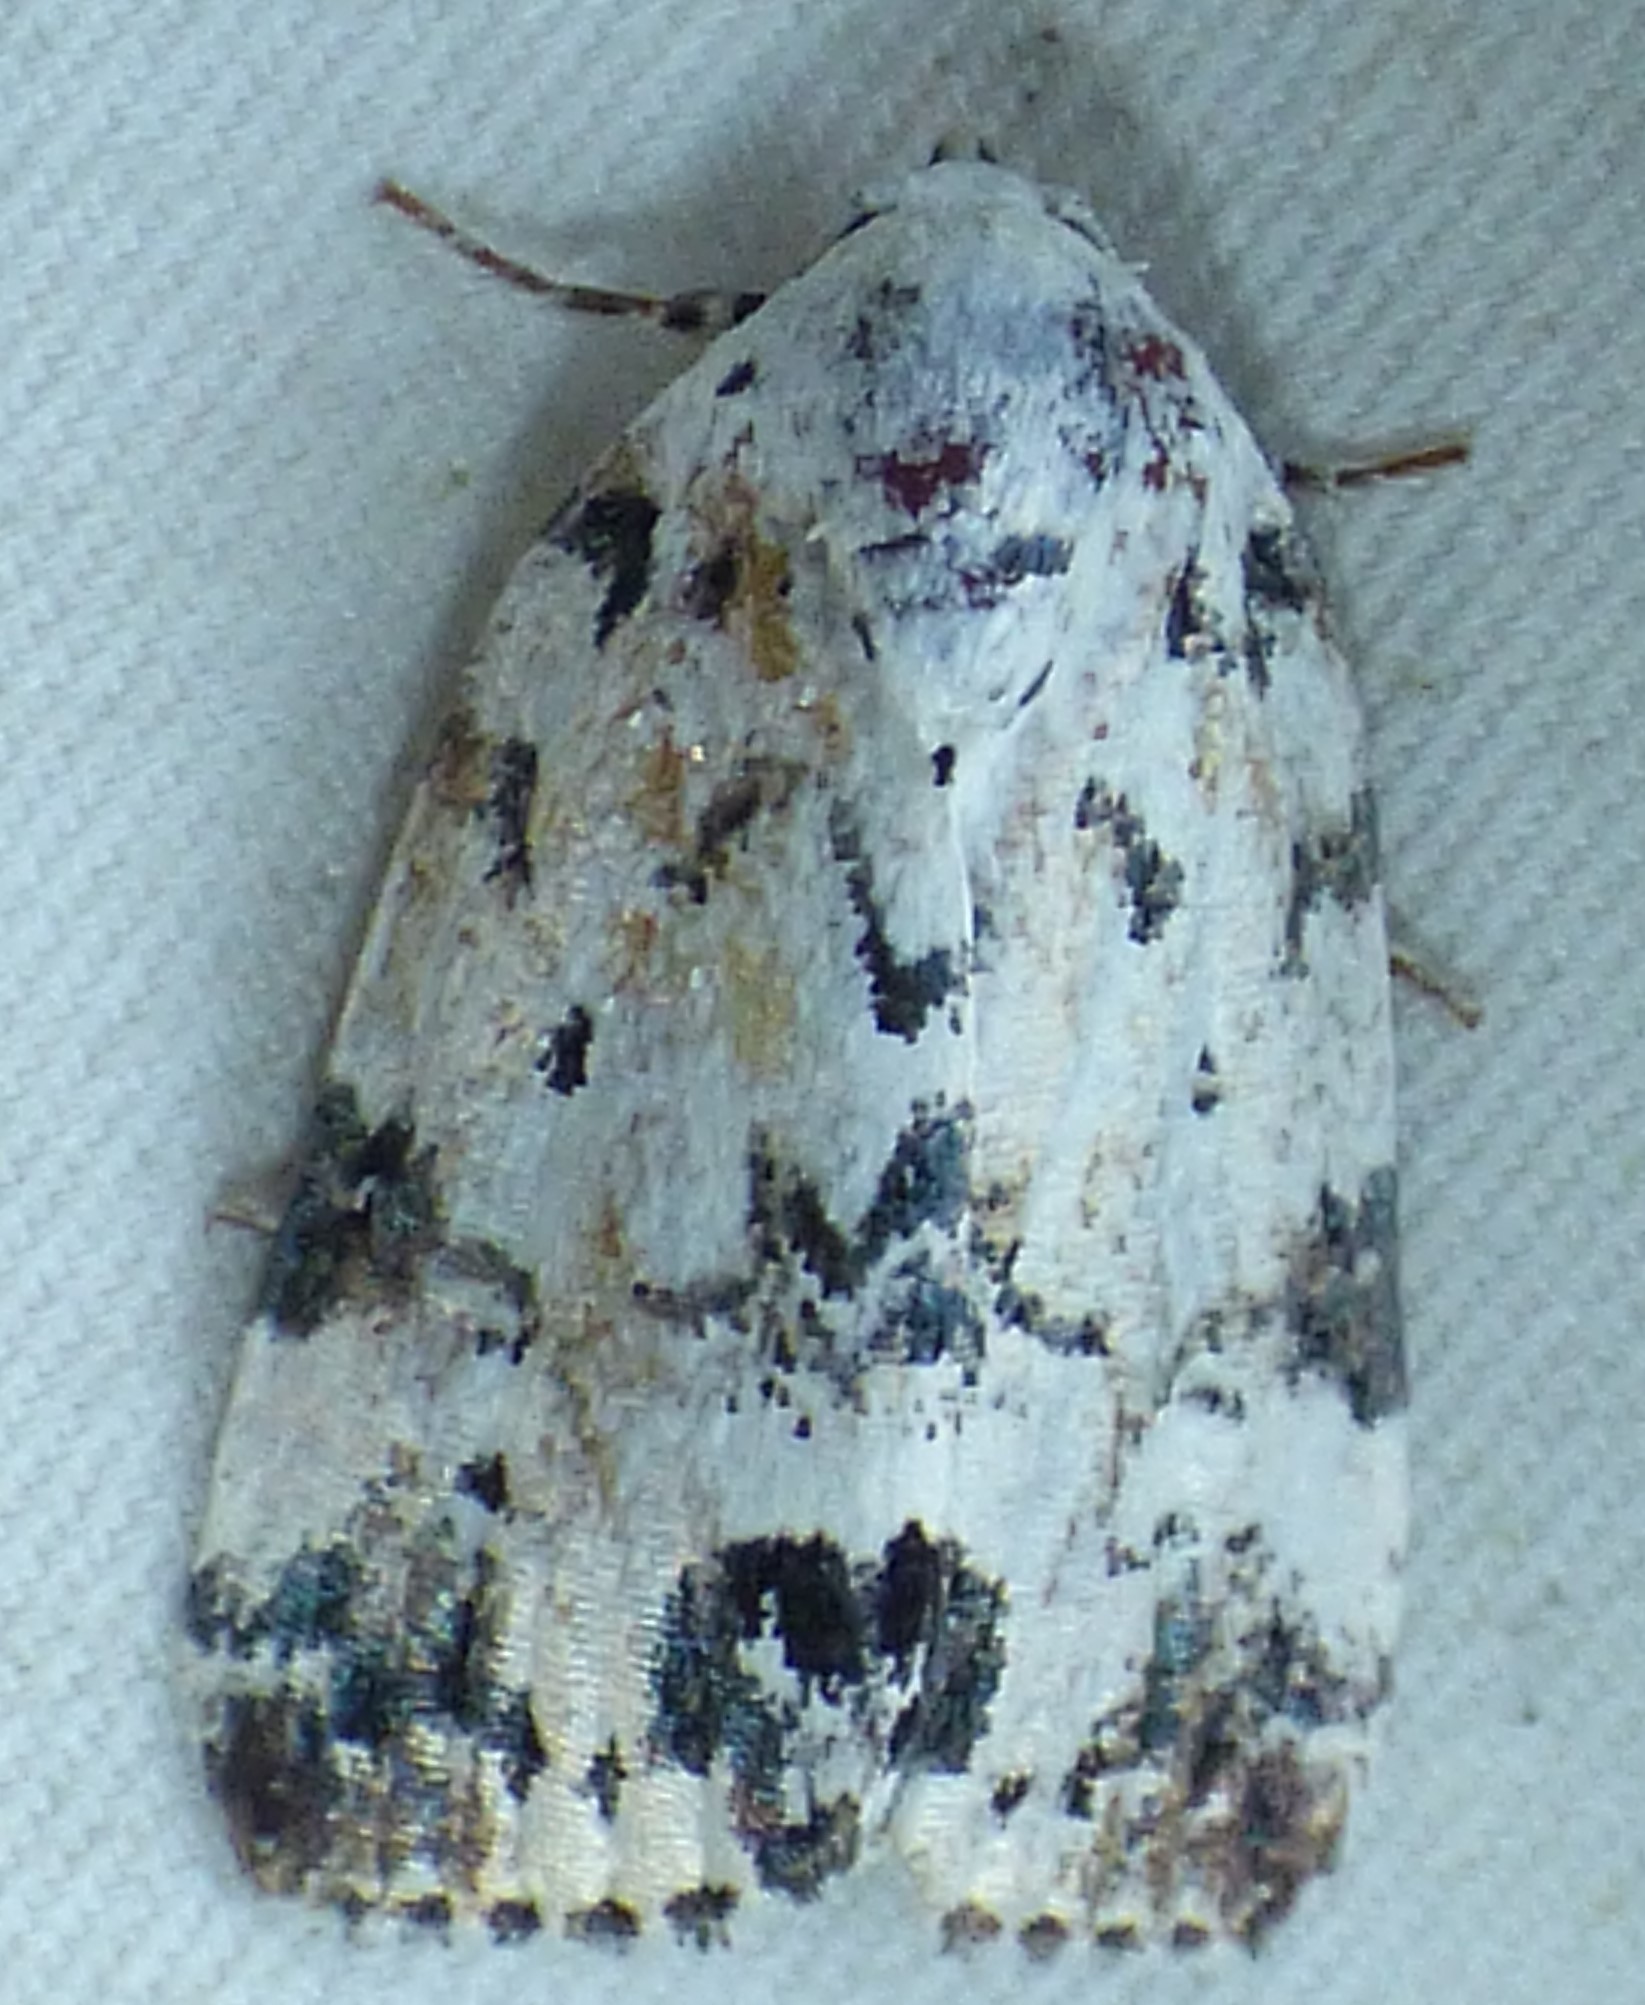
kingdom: Animalia
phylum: Arthropoda
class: Insecta
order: Lepidoptera
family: Noctuidae
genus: Polygrammate
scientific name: Polygrammate hebraeicum
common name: Hebrew moth
